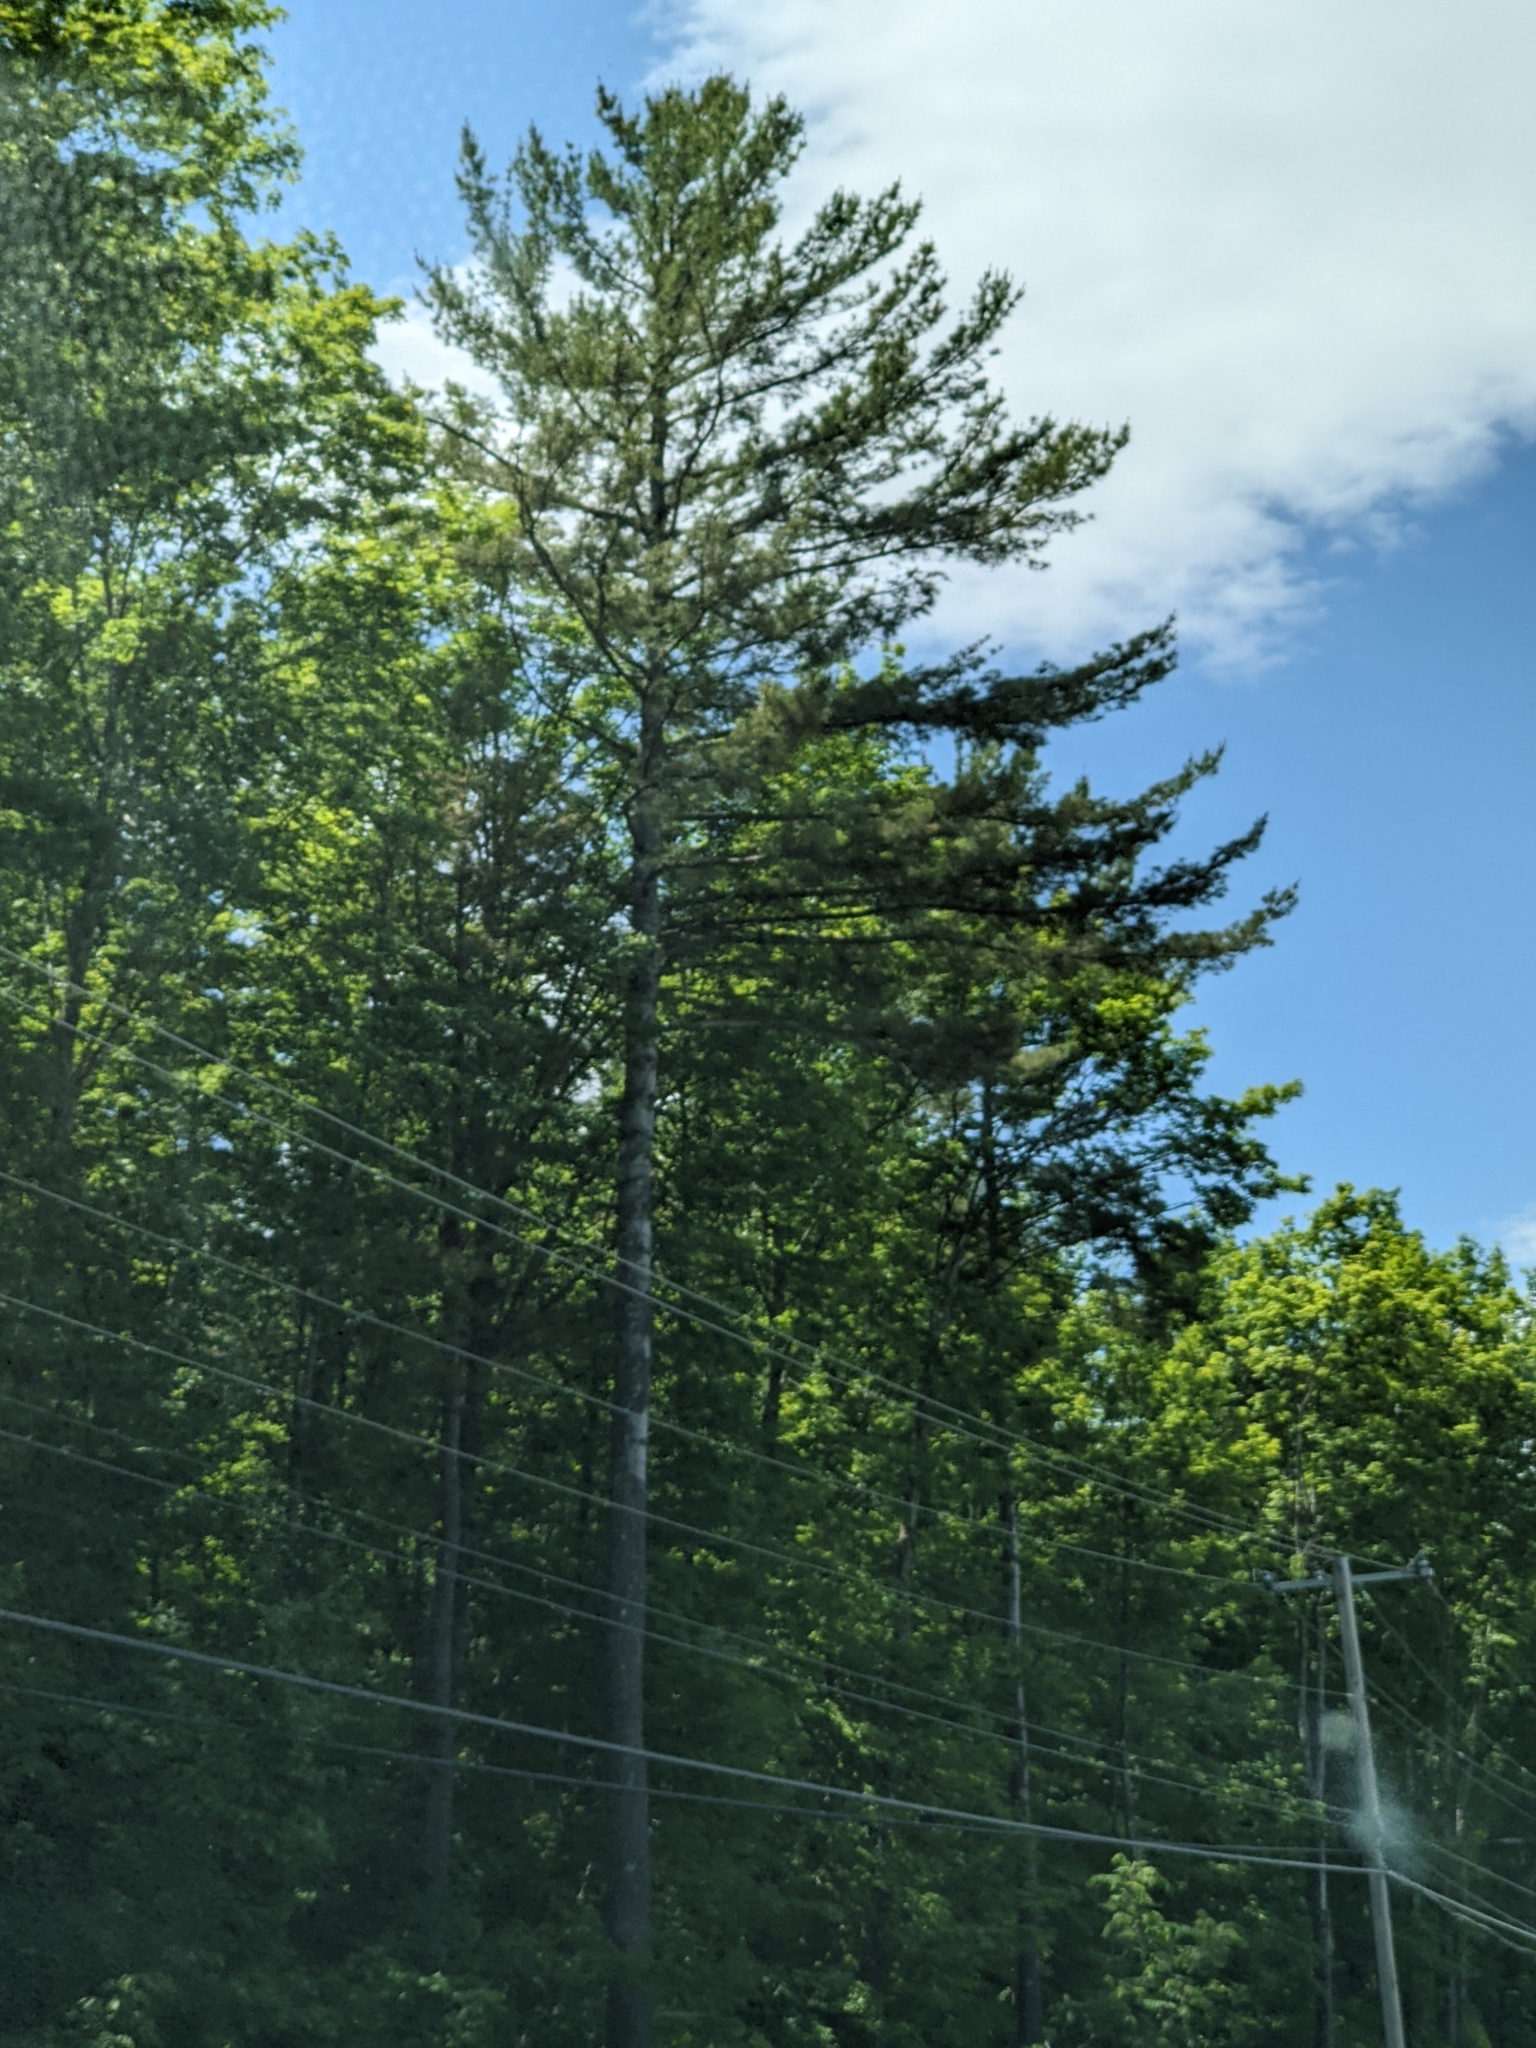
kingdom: Plantae
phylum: Tracheophyta
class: Pinopsida
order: Pinales
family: Pinaceae
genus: Pinus
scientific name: Pinus strobus
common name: Weymouth pine
